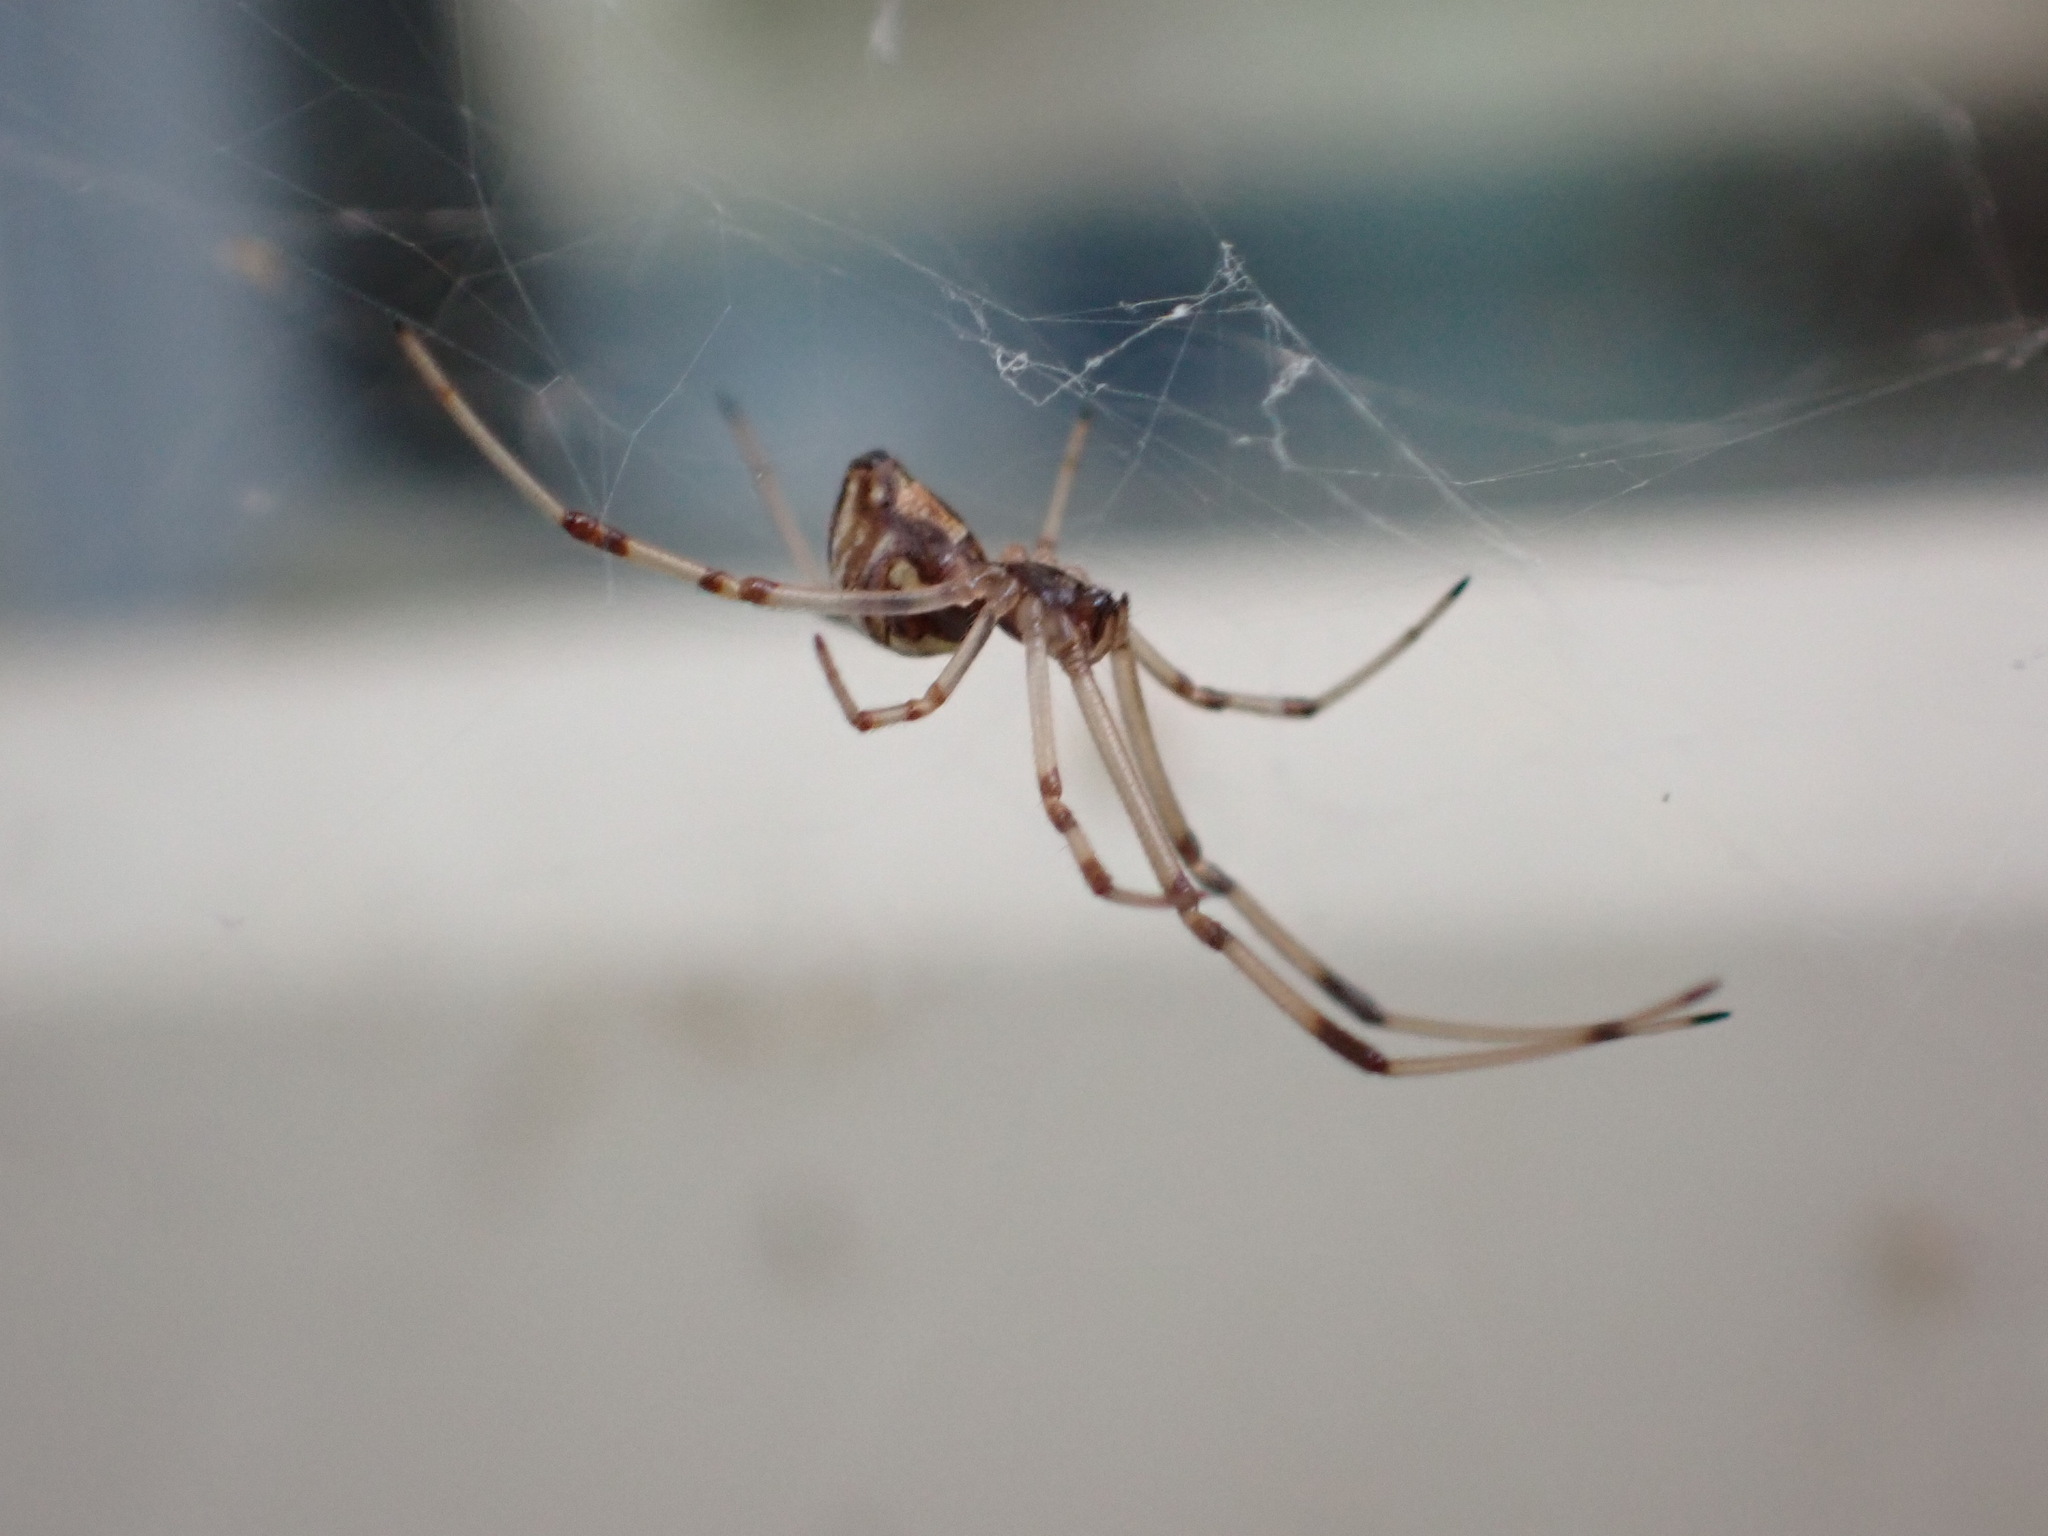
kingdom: Animalia
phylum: Arthropoda
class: Arachnida
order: Araneae
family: Theridiidae
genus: Latrodectus
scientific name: Latrodectus geometricus
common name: Brown widow spider
